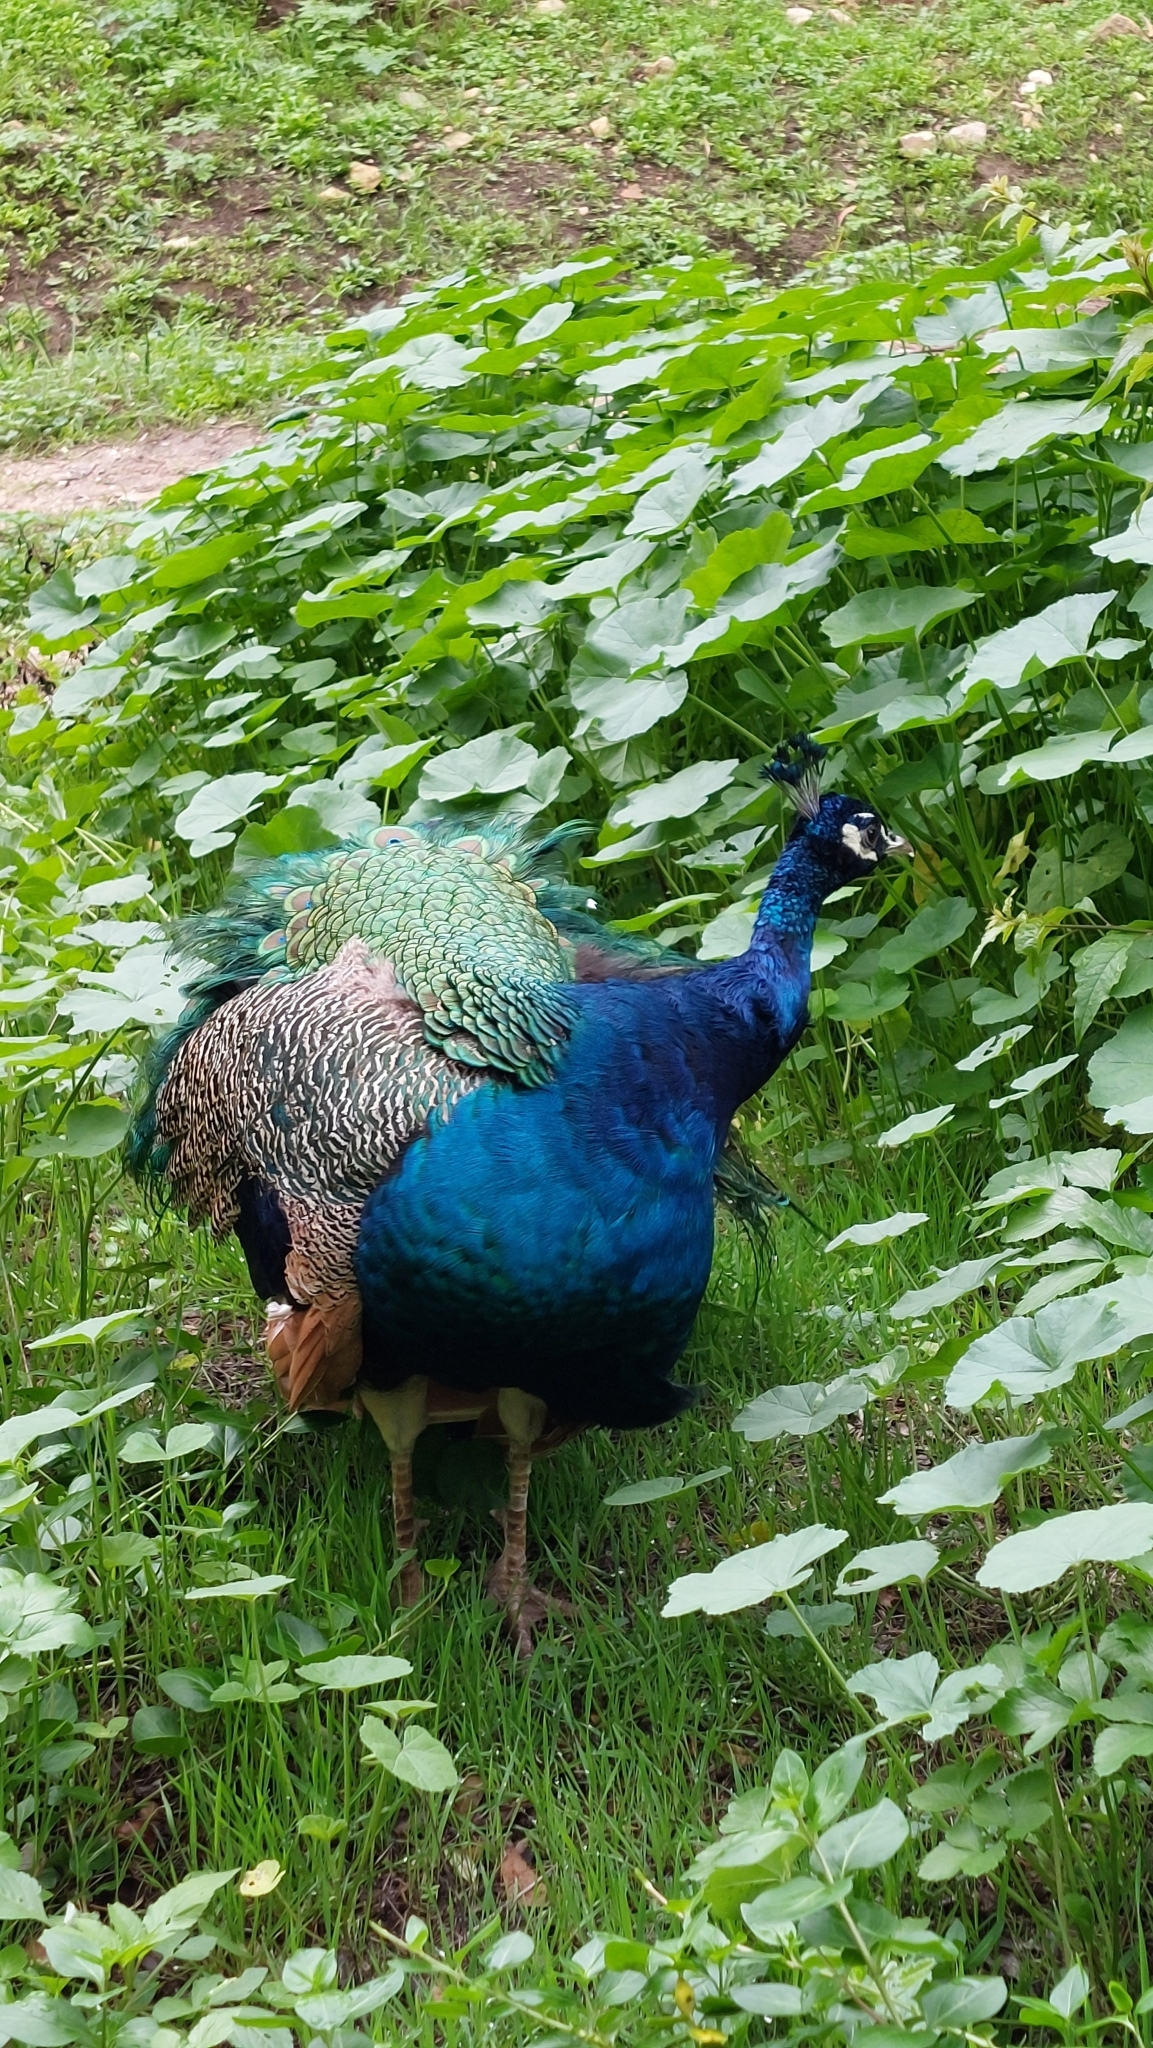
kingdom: Animalia
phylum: Chordata
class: Aves
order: Galliformes
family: Phasianidae
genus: Pavo
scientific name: Pavo cristatus
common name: Indian peafowl
